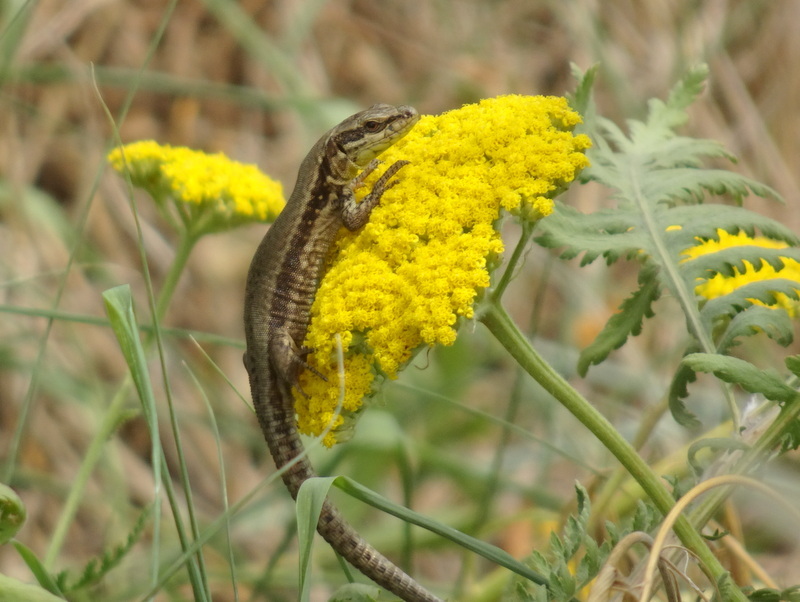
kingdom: Animalia
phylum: Chordata
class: Squamata
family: Lacertidae
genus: Podarcis
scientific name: Podarcis muralis
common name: Common wall lizard
